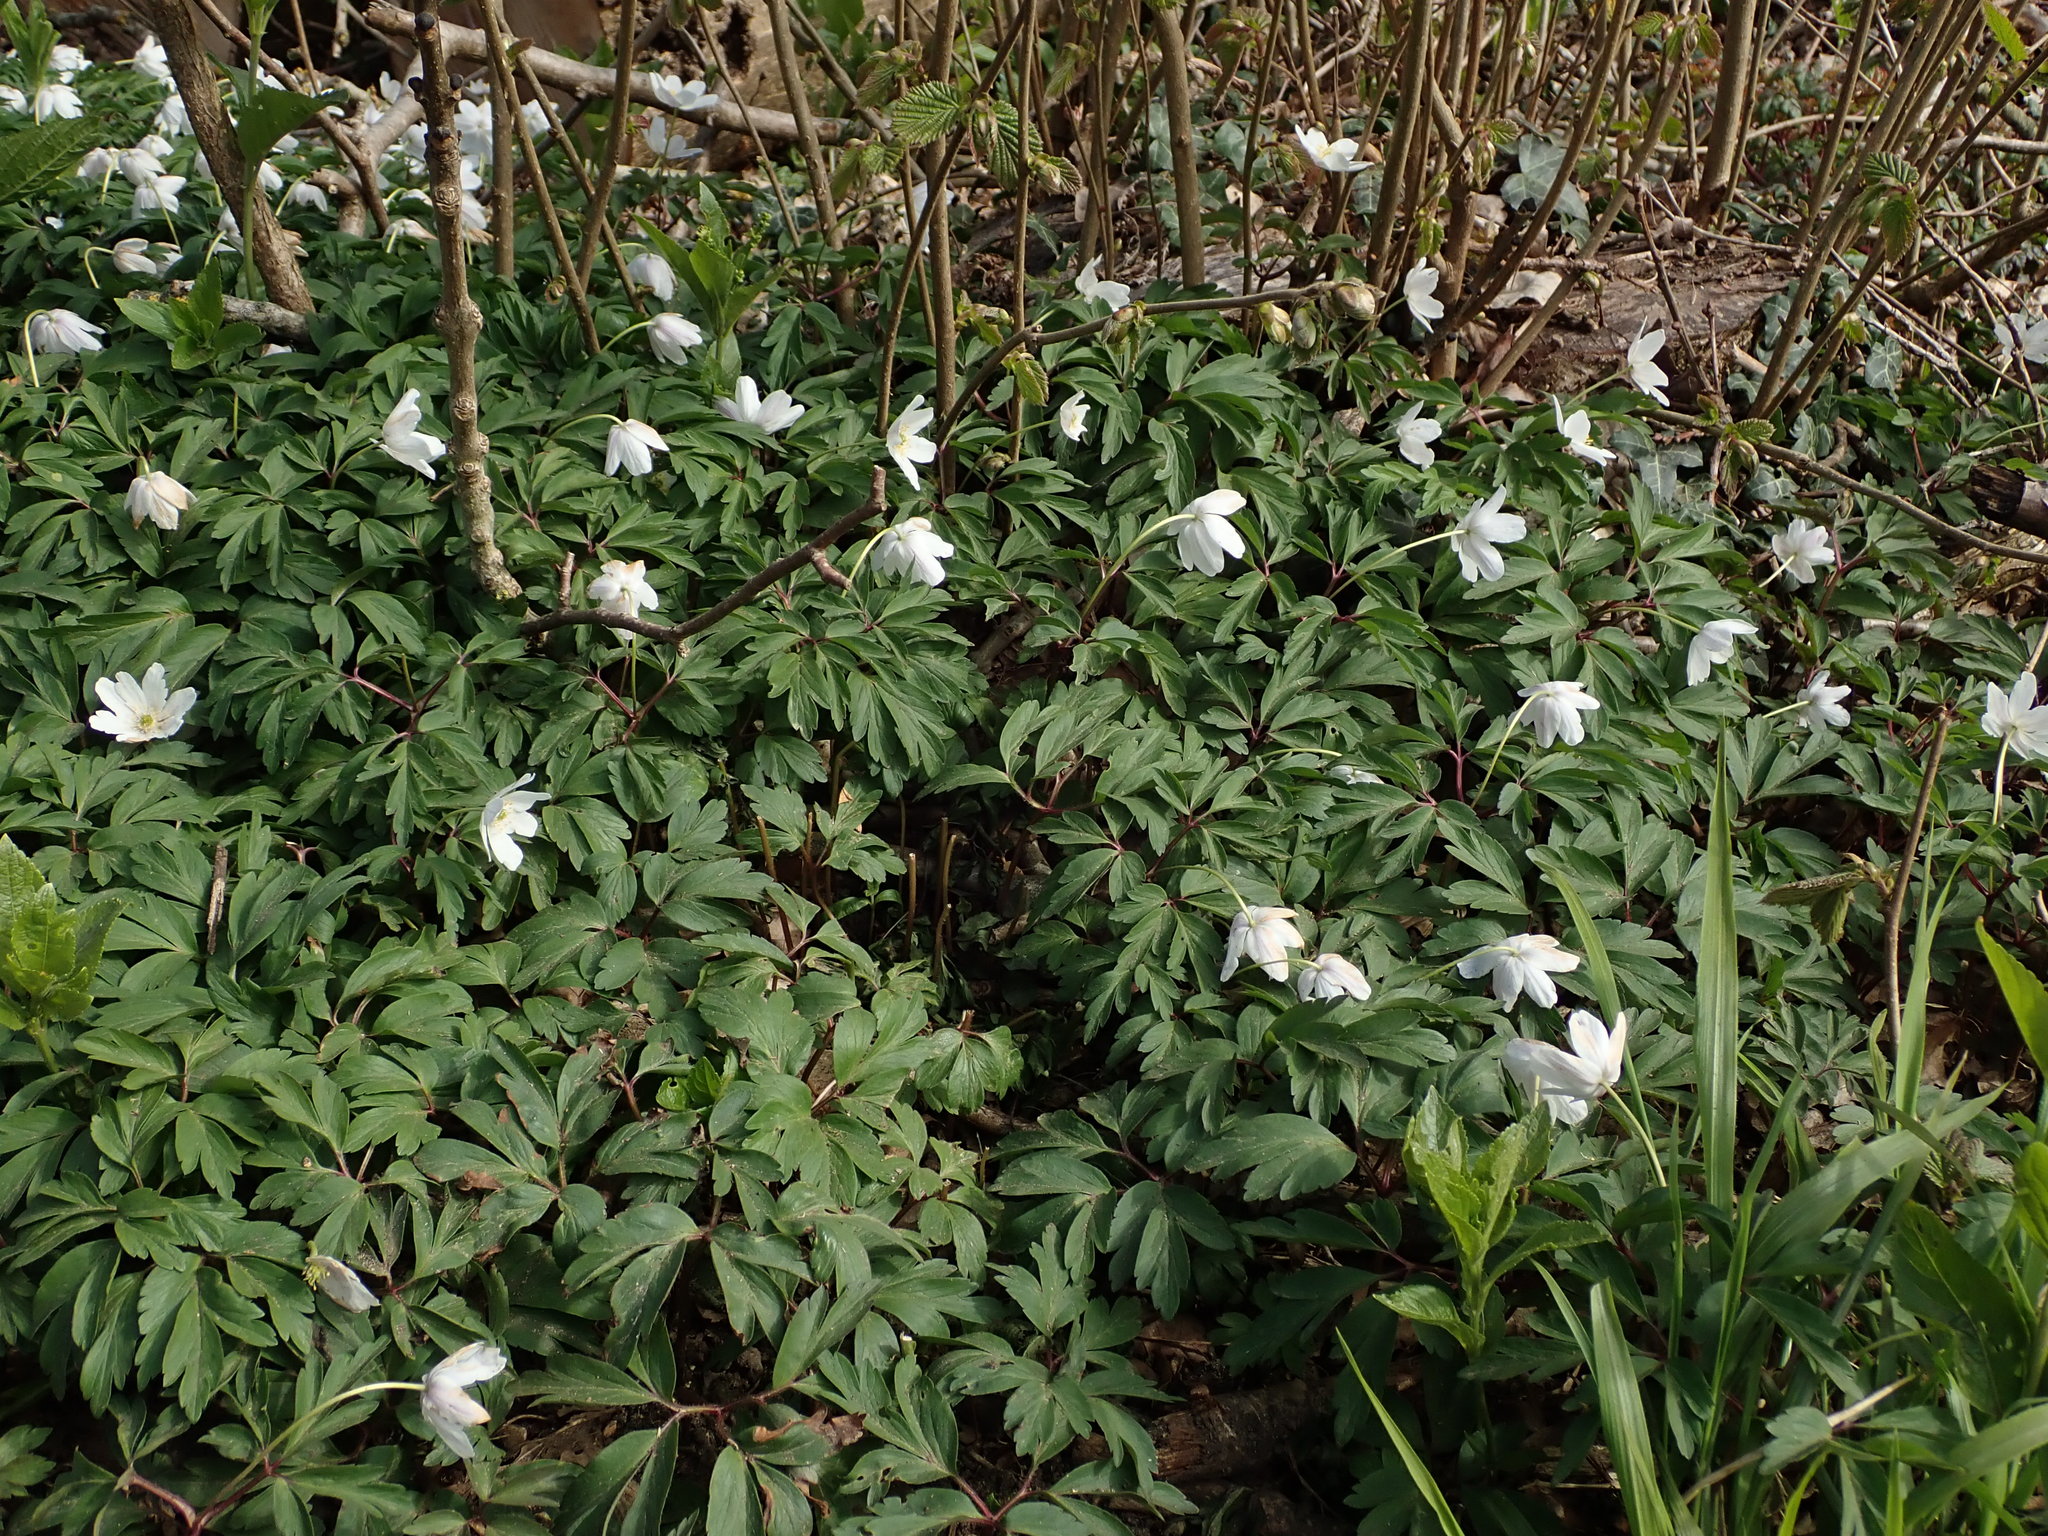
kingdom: Plantae
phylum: Tracheophyta
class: Magnoliopsida
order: Ranunculales
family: Ranunculaceae
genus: Anemone
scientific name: Anemone nemorosa
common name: Wood anemone
